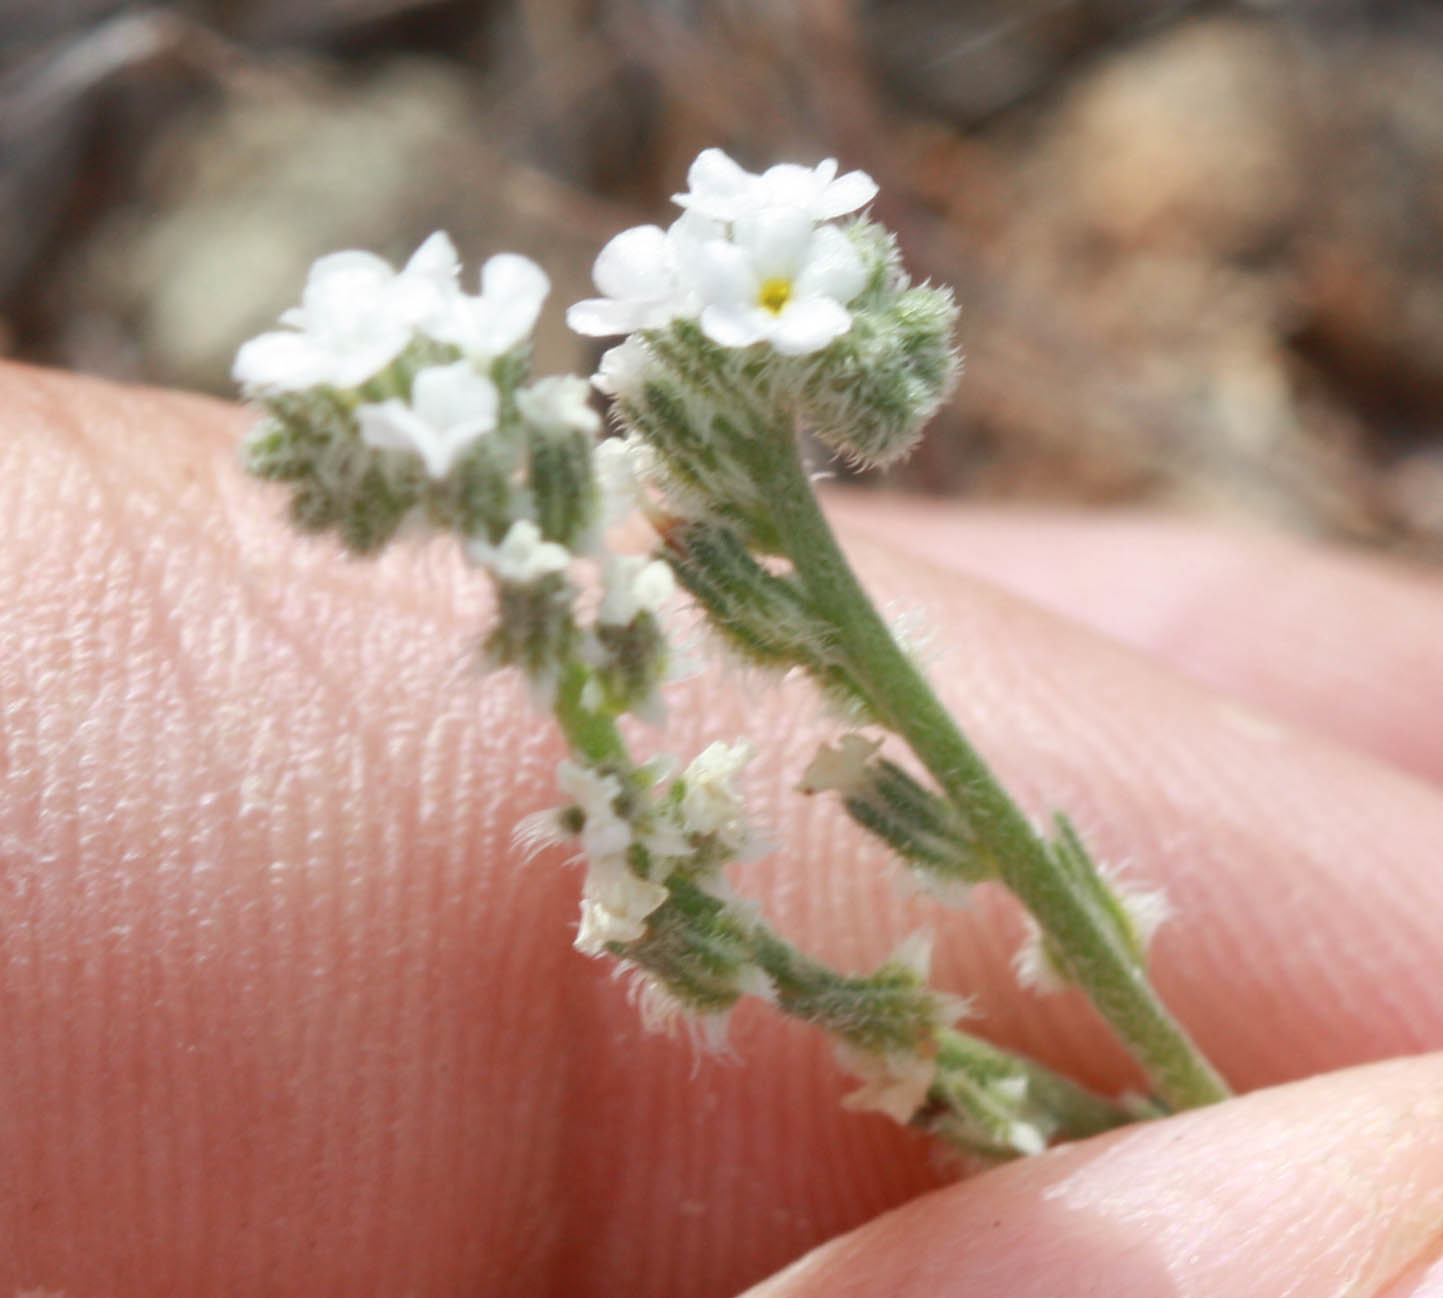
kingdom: Plantae
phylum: Tracheophyta
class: Magnoliopsida
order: Boraginales
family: Boraginaceae
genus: Cryptantha
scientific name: Cryptantha flaccida
